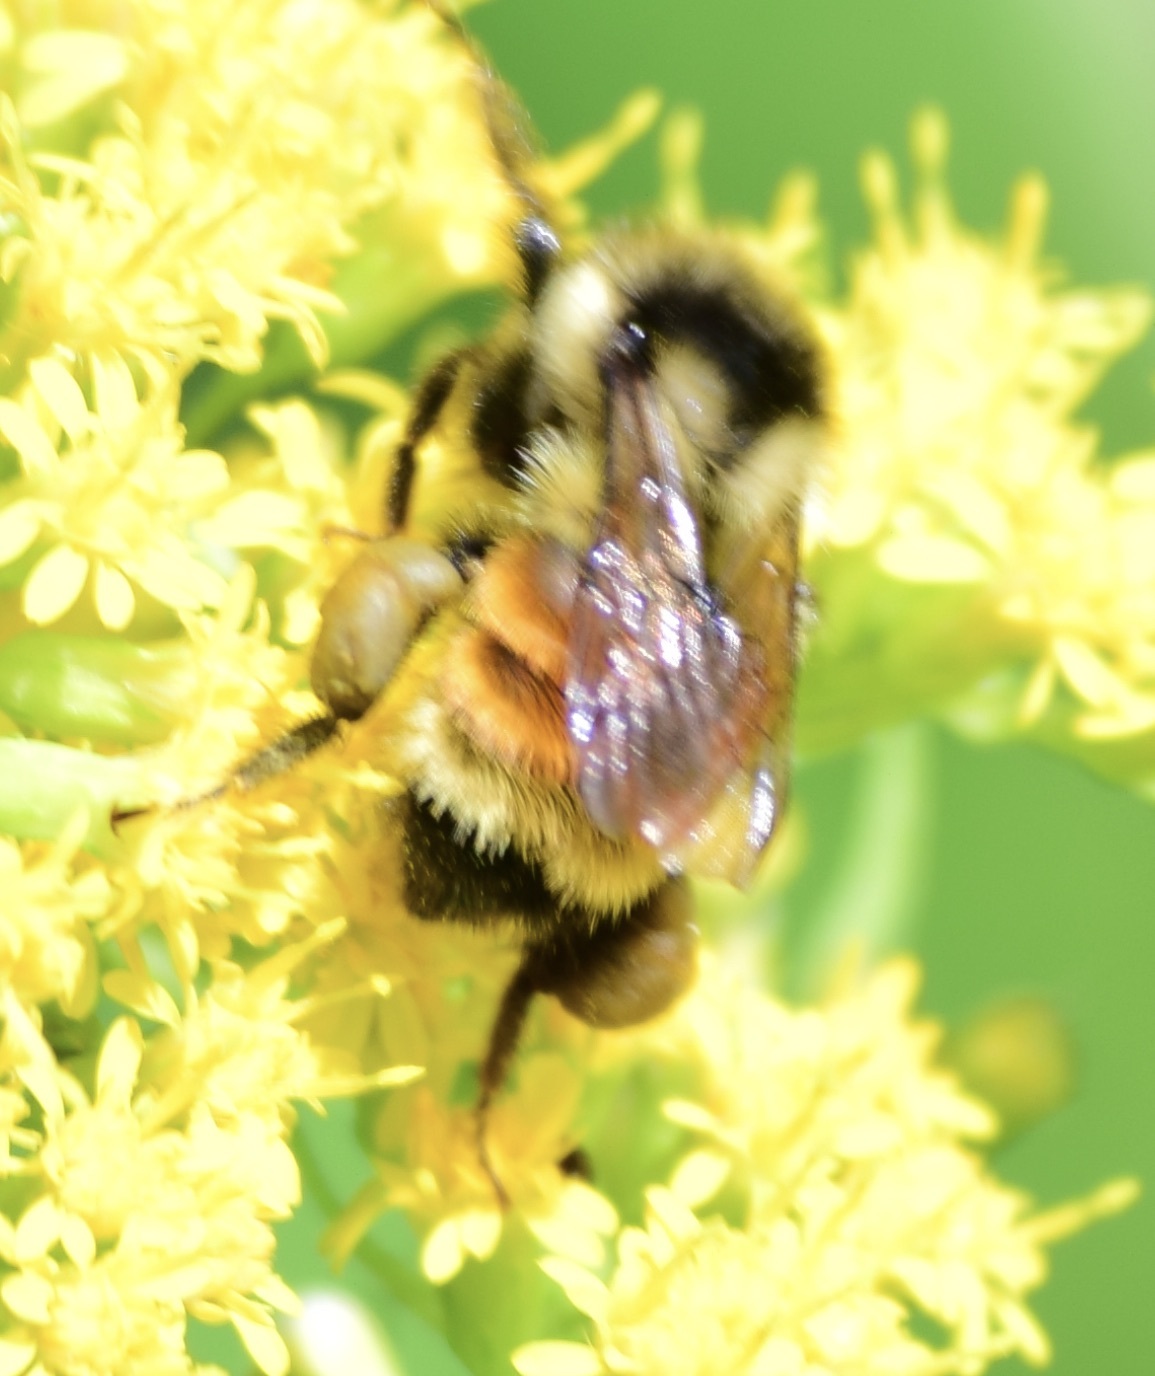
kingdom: Animalia
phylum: Arthropoda
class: Insecta
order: Hymenoptera
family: Apidae
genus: Bombus
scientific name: Bombus ternarius
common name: Tri-colored bumble bee
